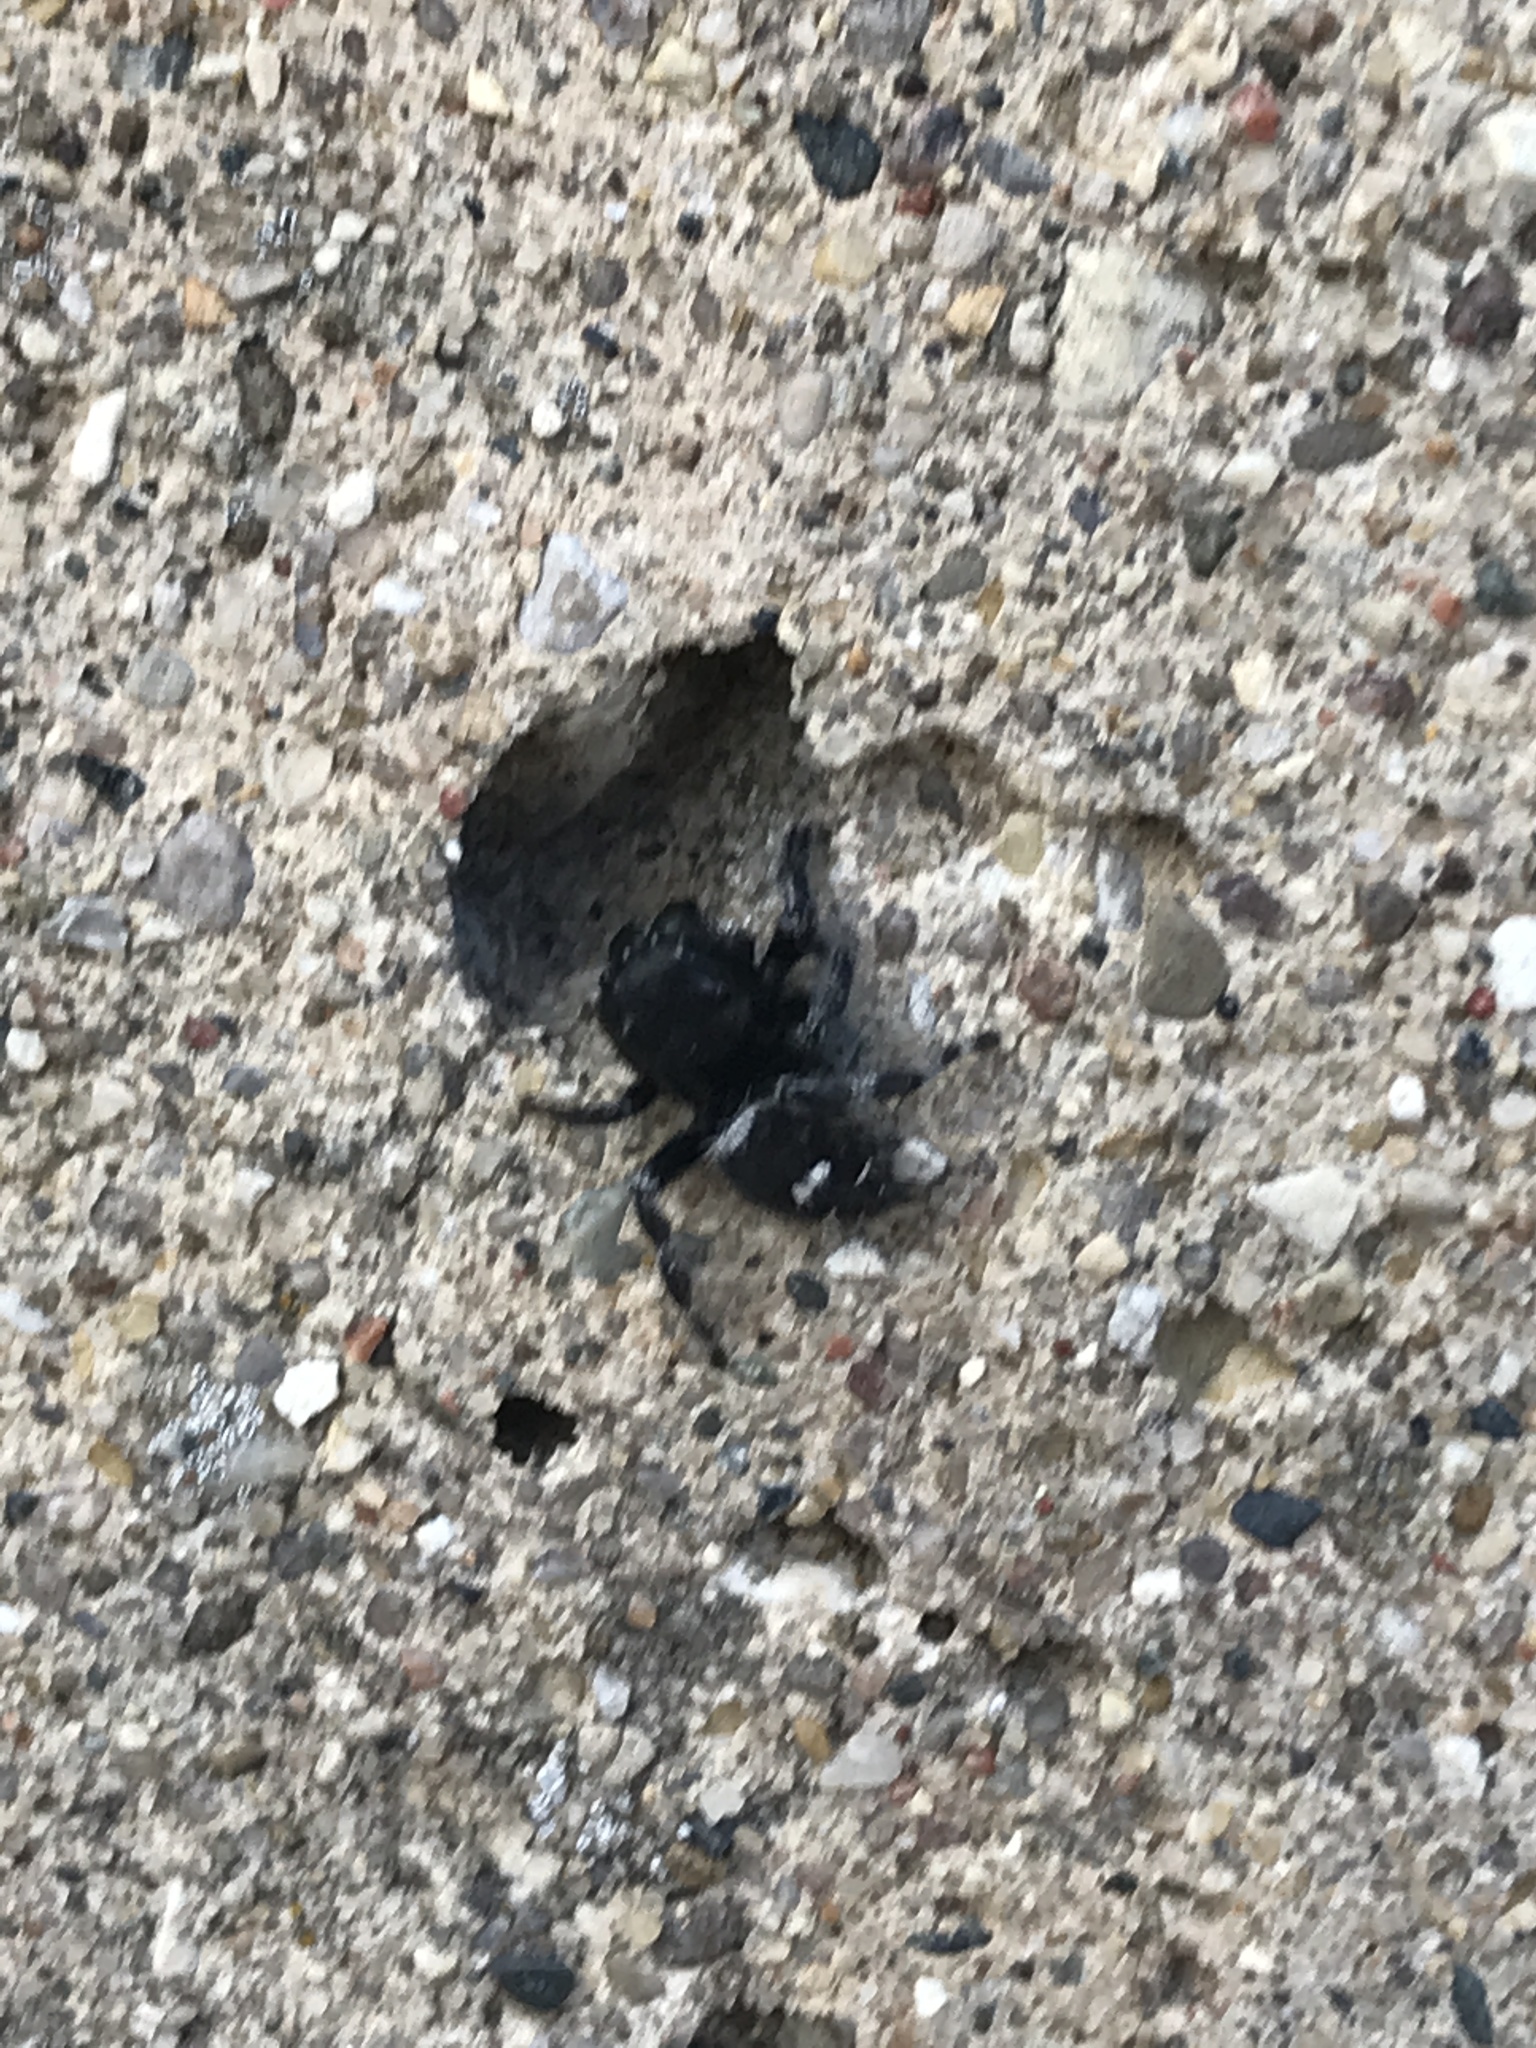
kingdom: Animalia
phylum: Arthropoda
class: Arachnida
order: Araneae
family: Salticidae
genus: Phidippus
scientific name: Phidippus audax
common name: Bold jumper
